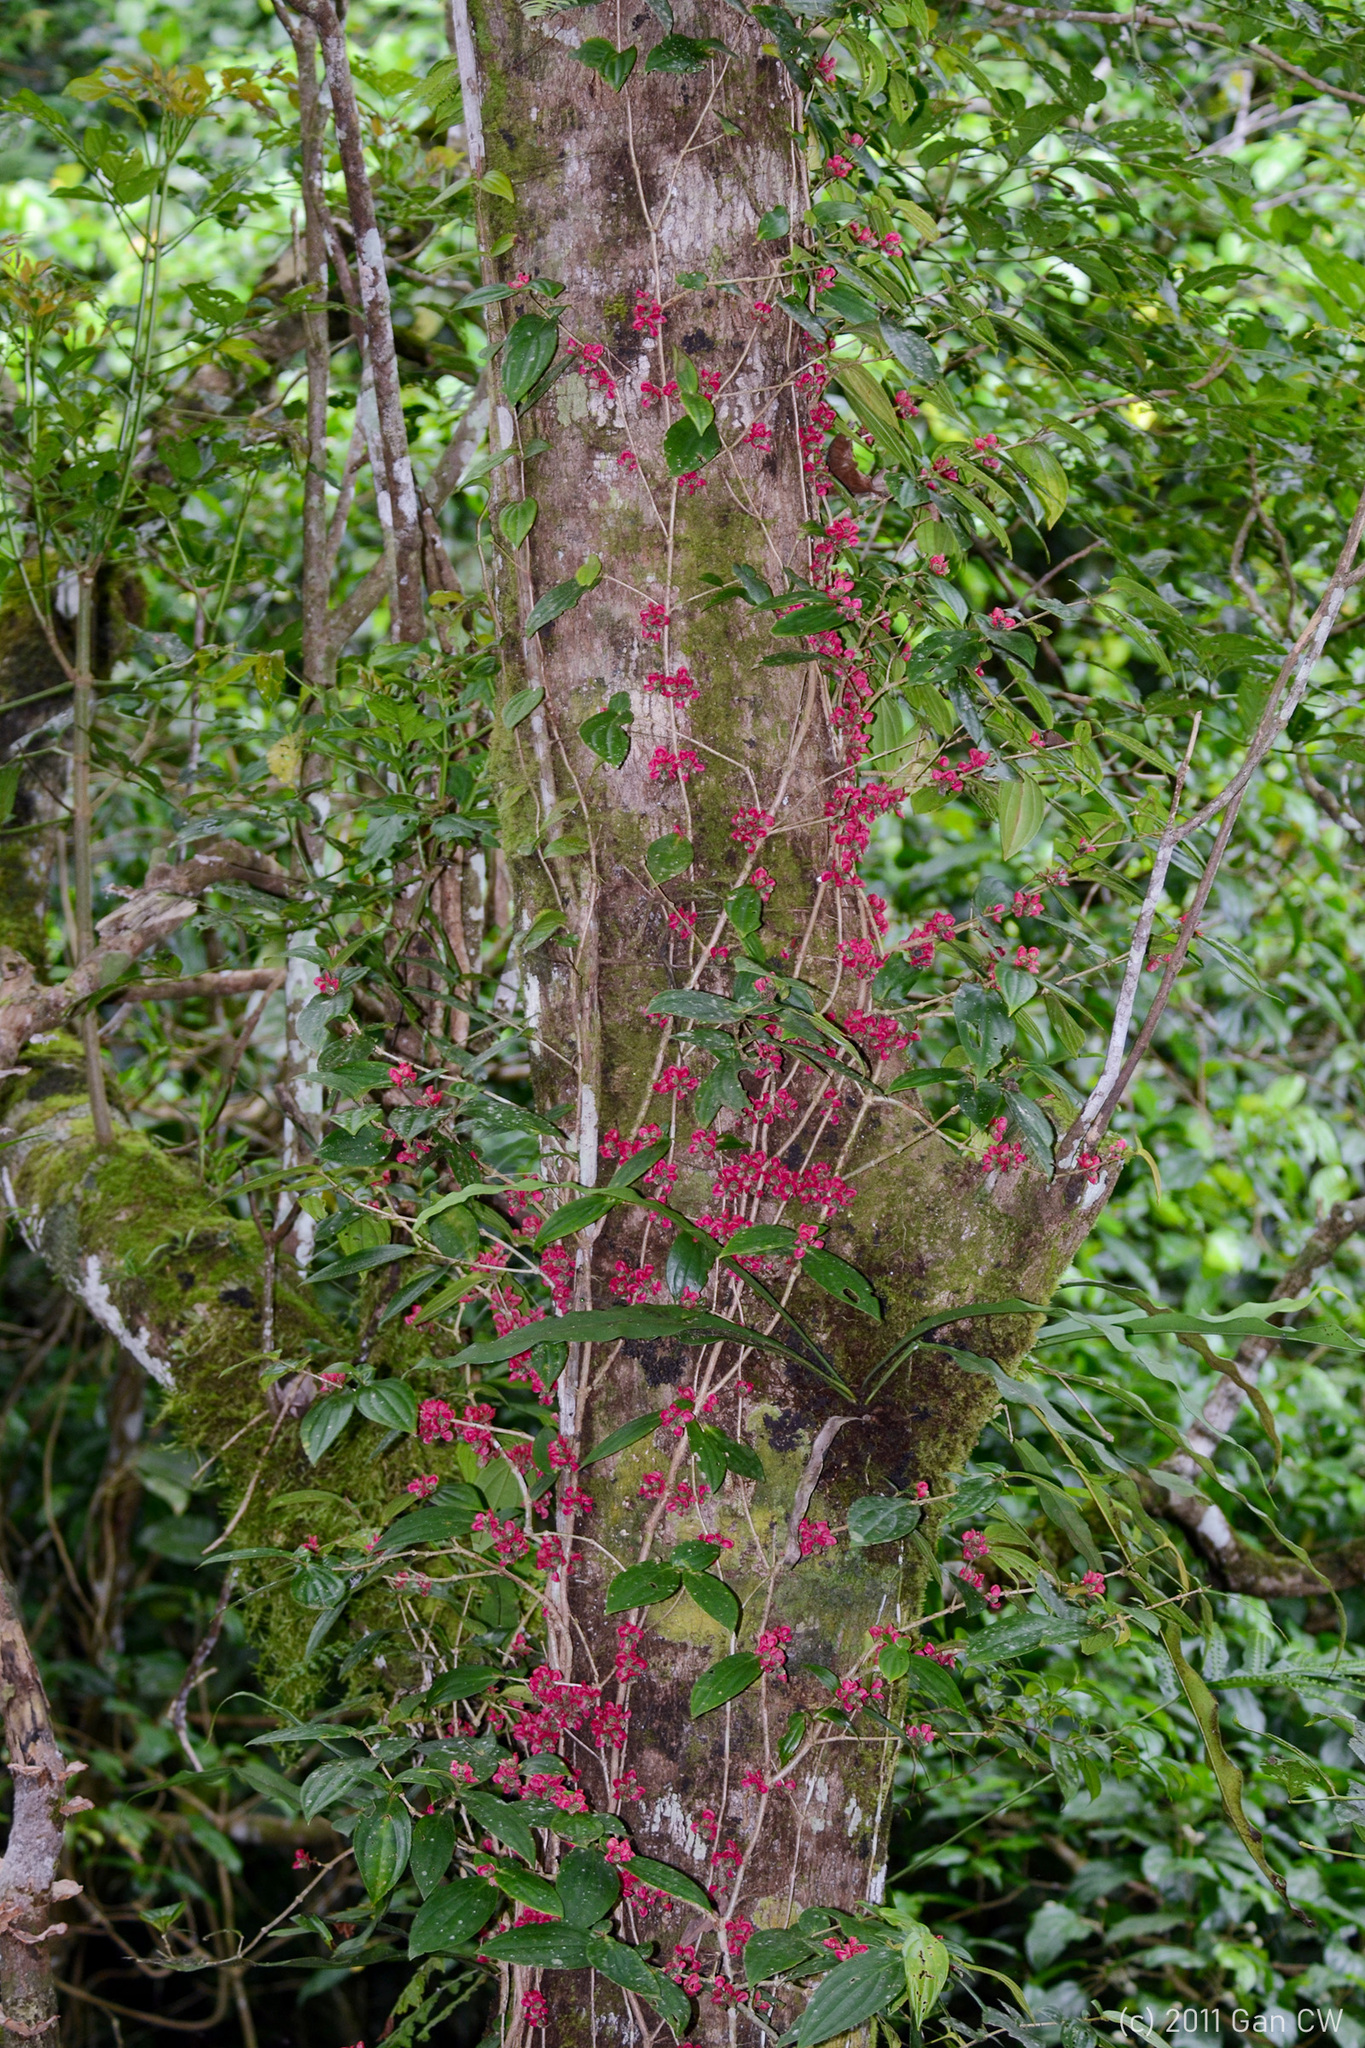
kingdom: Plantae
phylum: Tracheophyta
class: Magnoliopsida
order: Myrtales
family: Melastomataceae
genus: Medinilla
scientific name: Medinilla setigera
